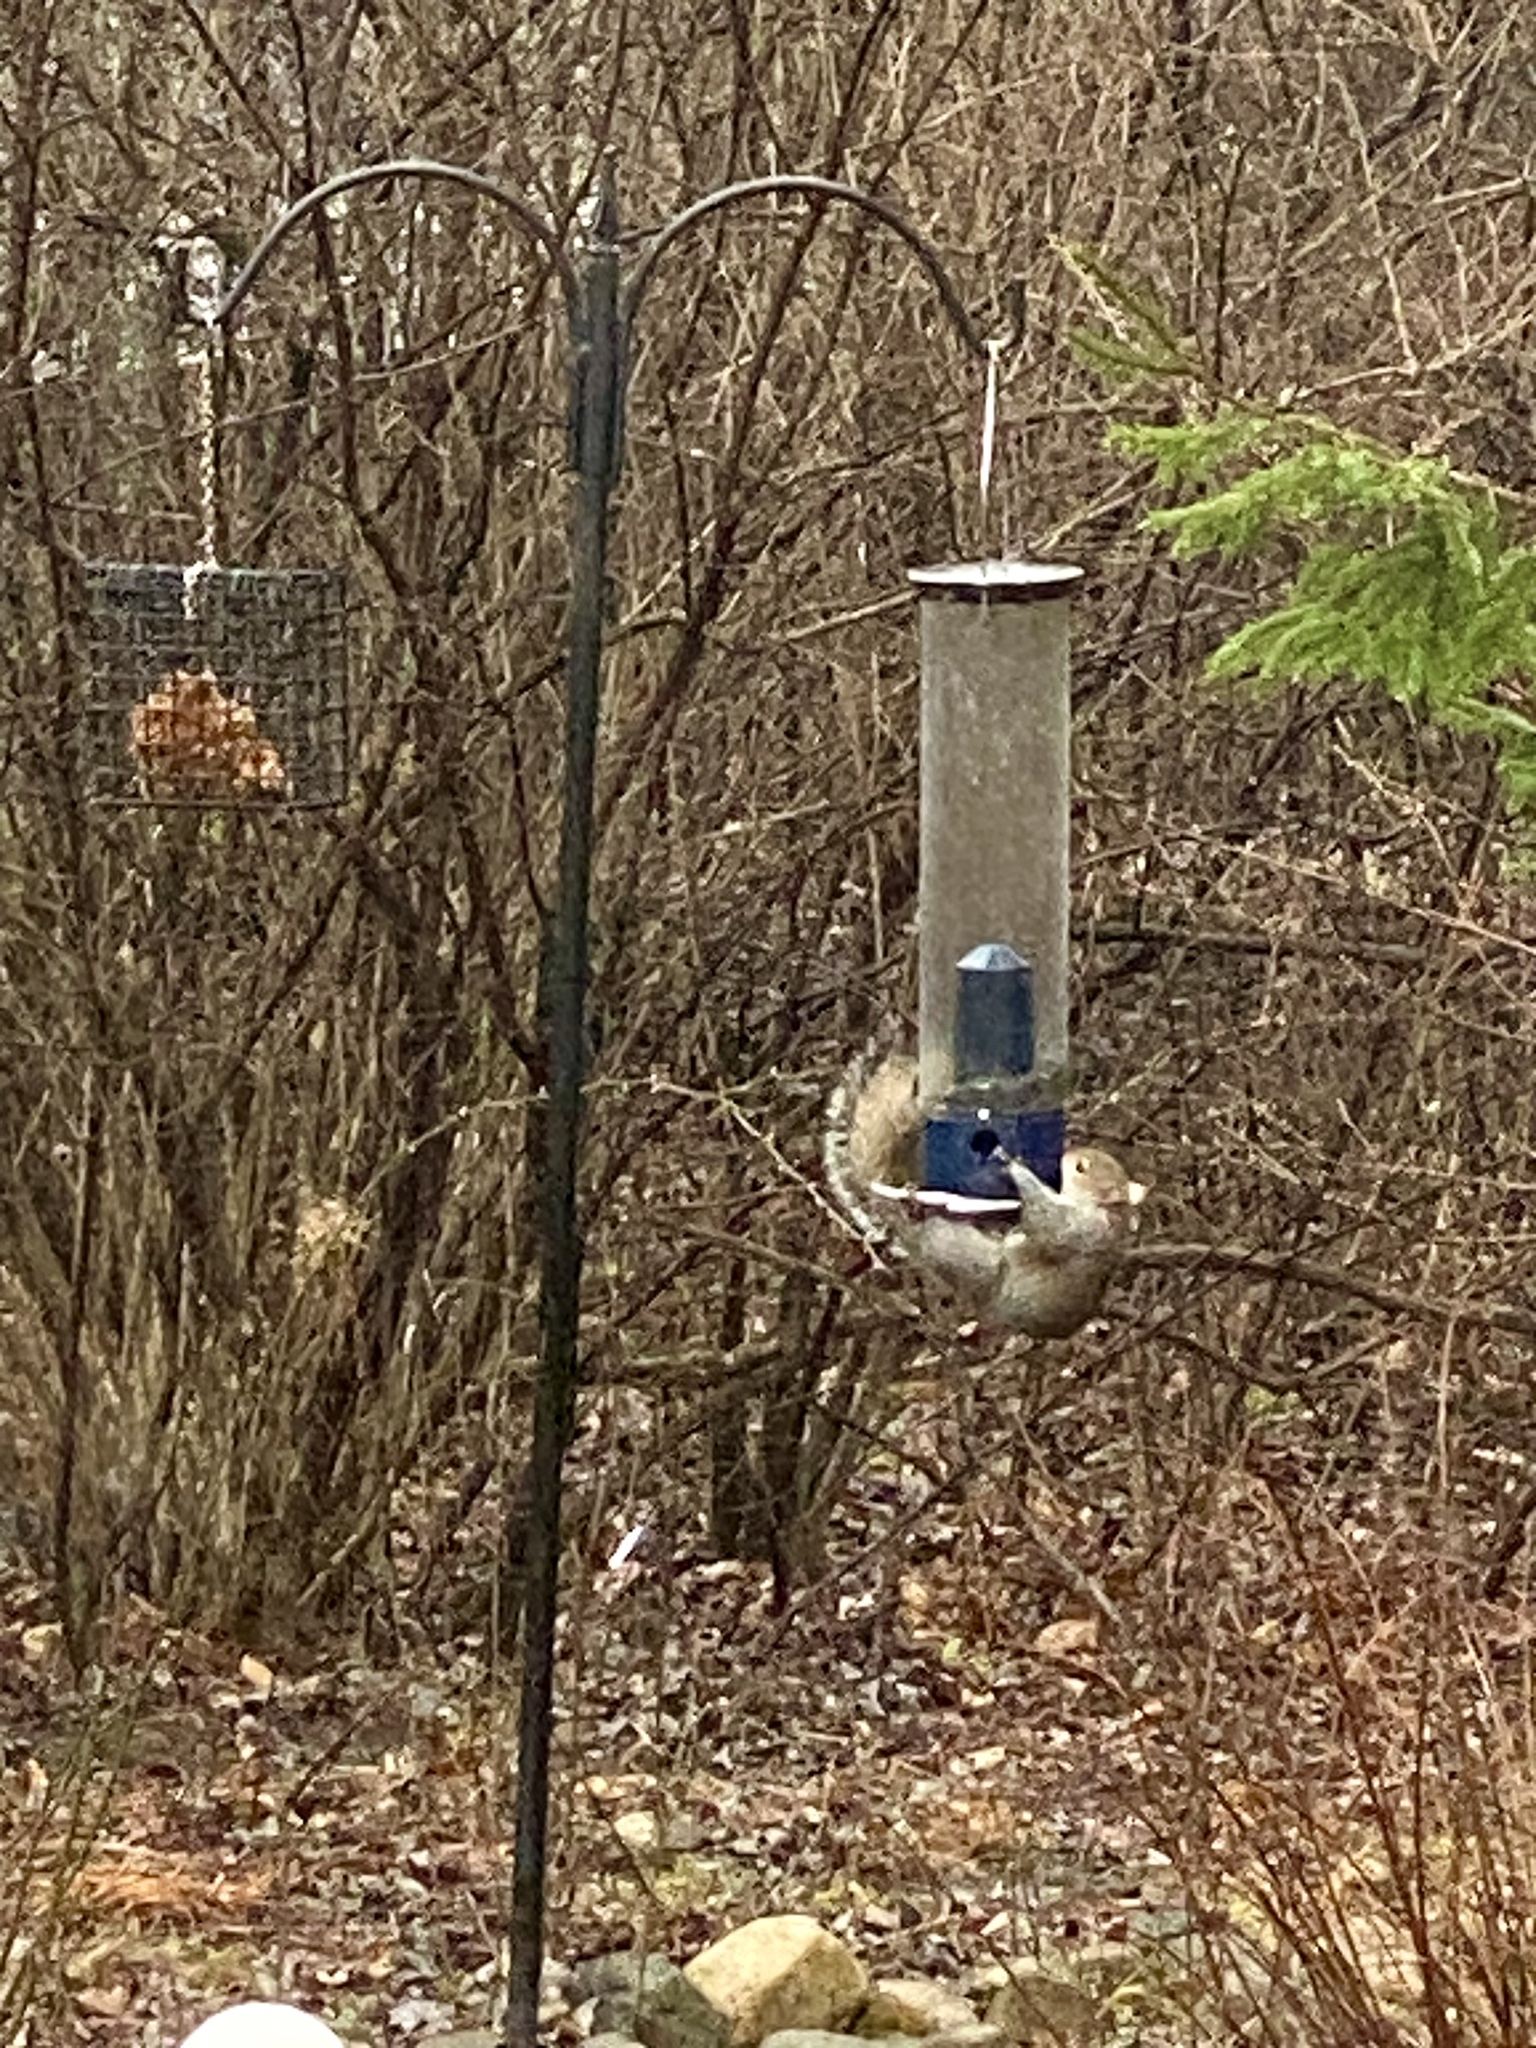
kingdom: Animalia
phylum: Chordata
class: Mammalia
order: Rodentia
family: Sciuridae
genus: Sciurus
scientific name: Sciurus carolinensis
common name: Eastern gray squirrel
